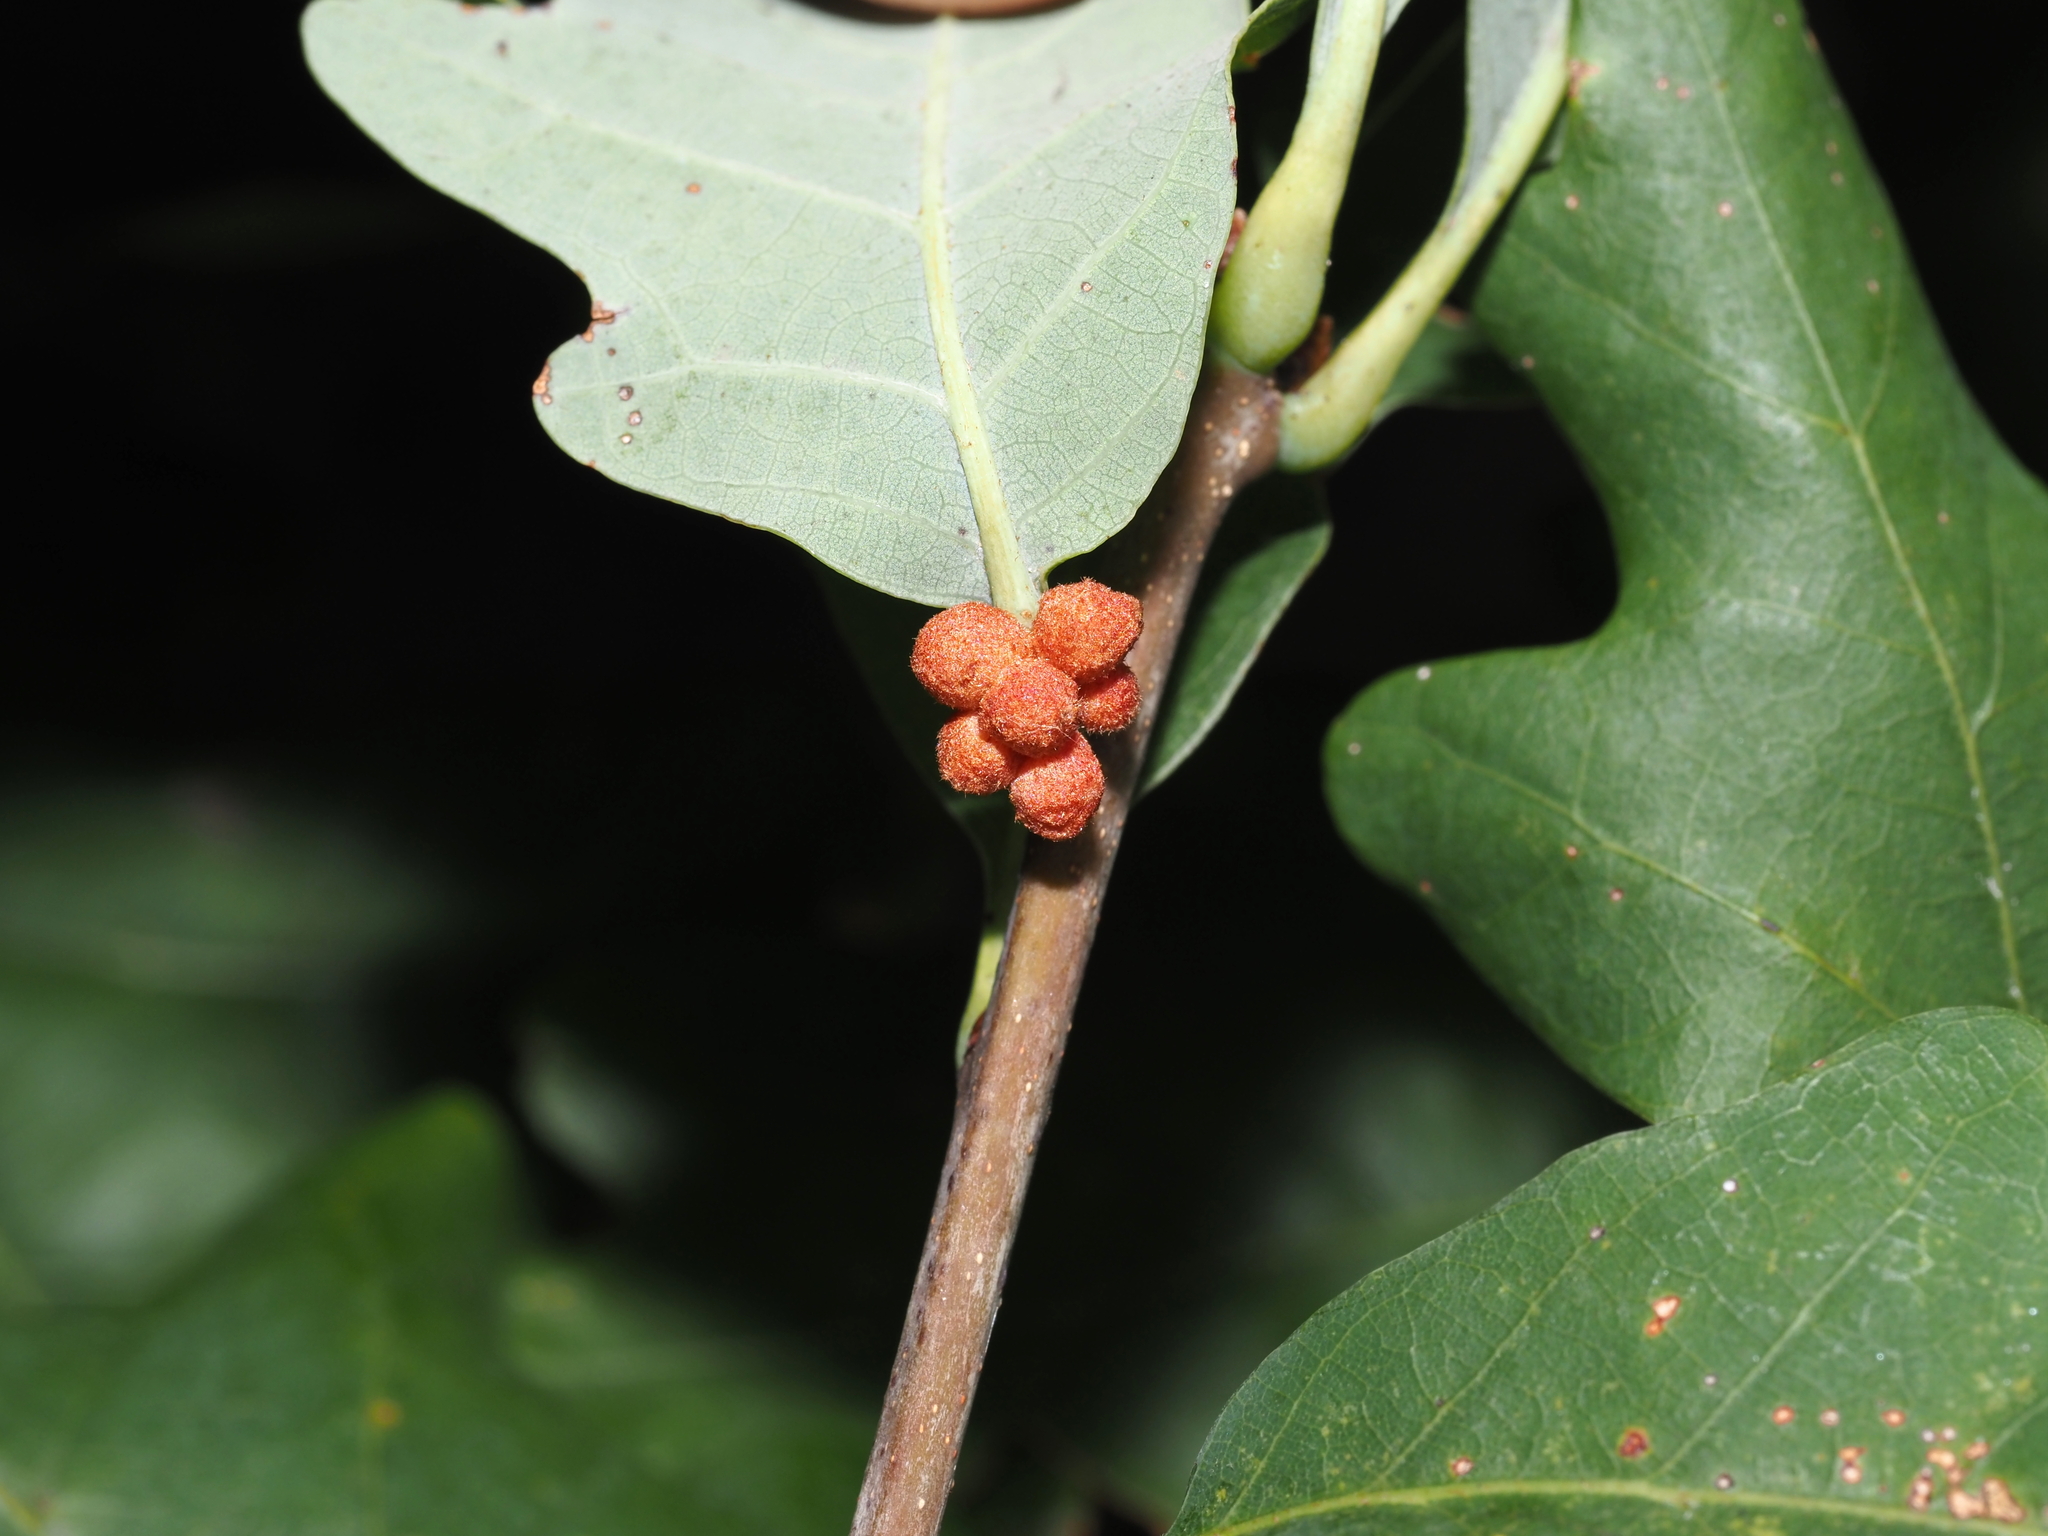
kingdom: Animalia
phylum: Arthropoda
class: Insecta
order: Hymenoptera
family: Cynipidae
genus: Andricus
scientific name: Andricus
